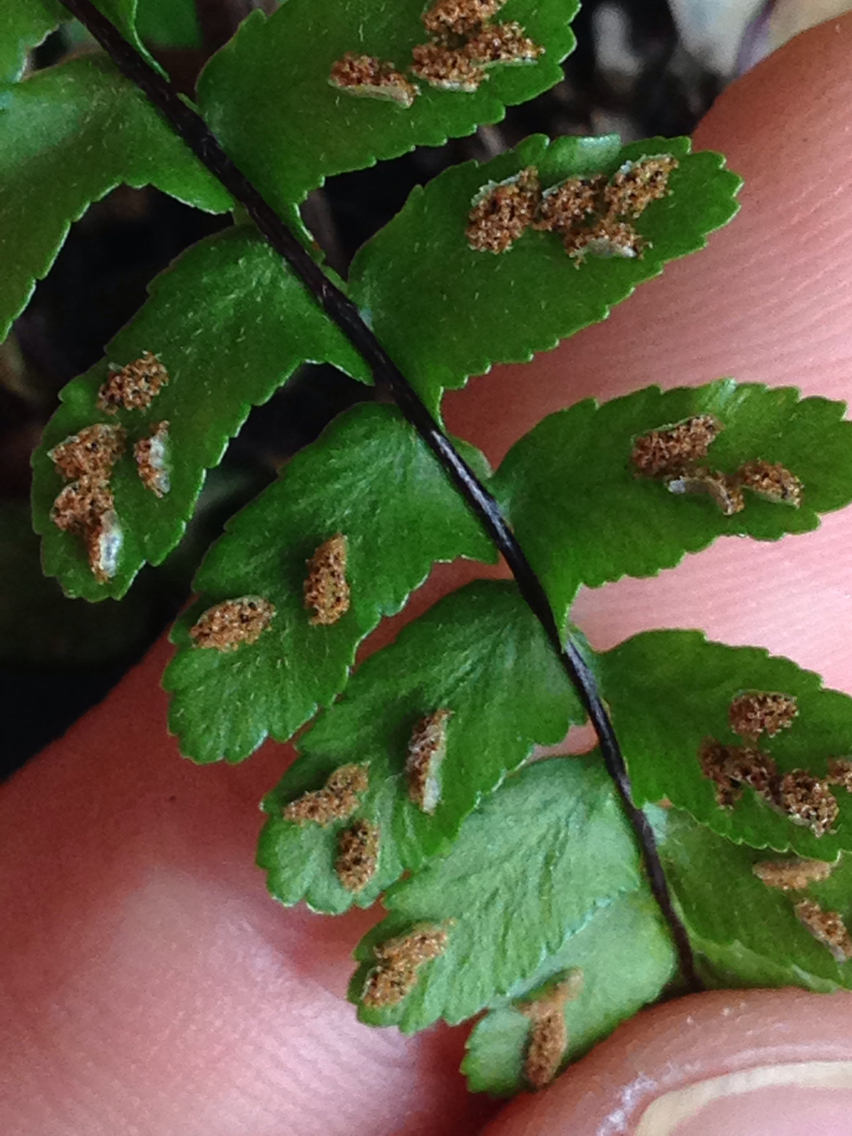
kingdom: Plantae
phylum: Tracheophyta
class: Polypodiopsida
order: Polypodiales
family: Aspleniaceae
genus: Asplenium
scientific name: Asplenium platyneuron
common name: Ebony spleenwort
